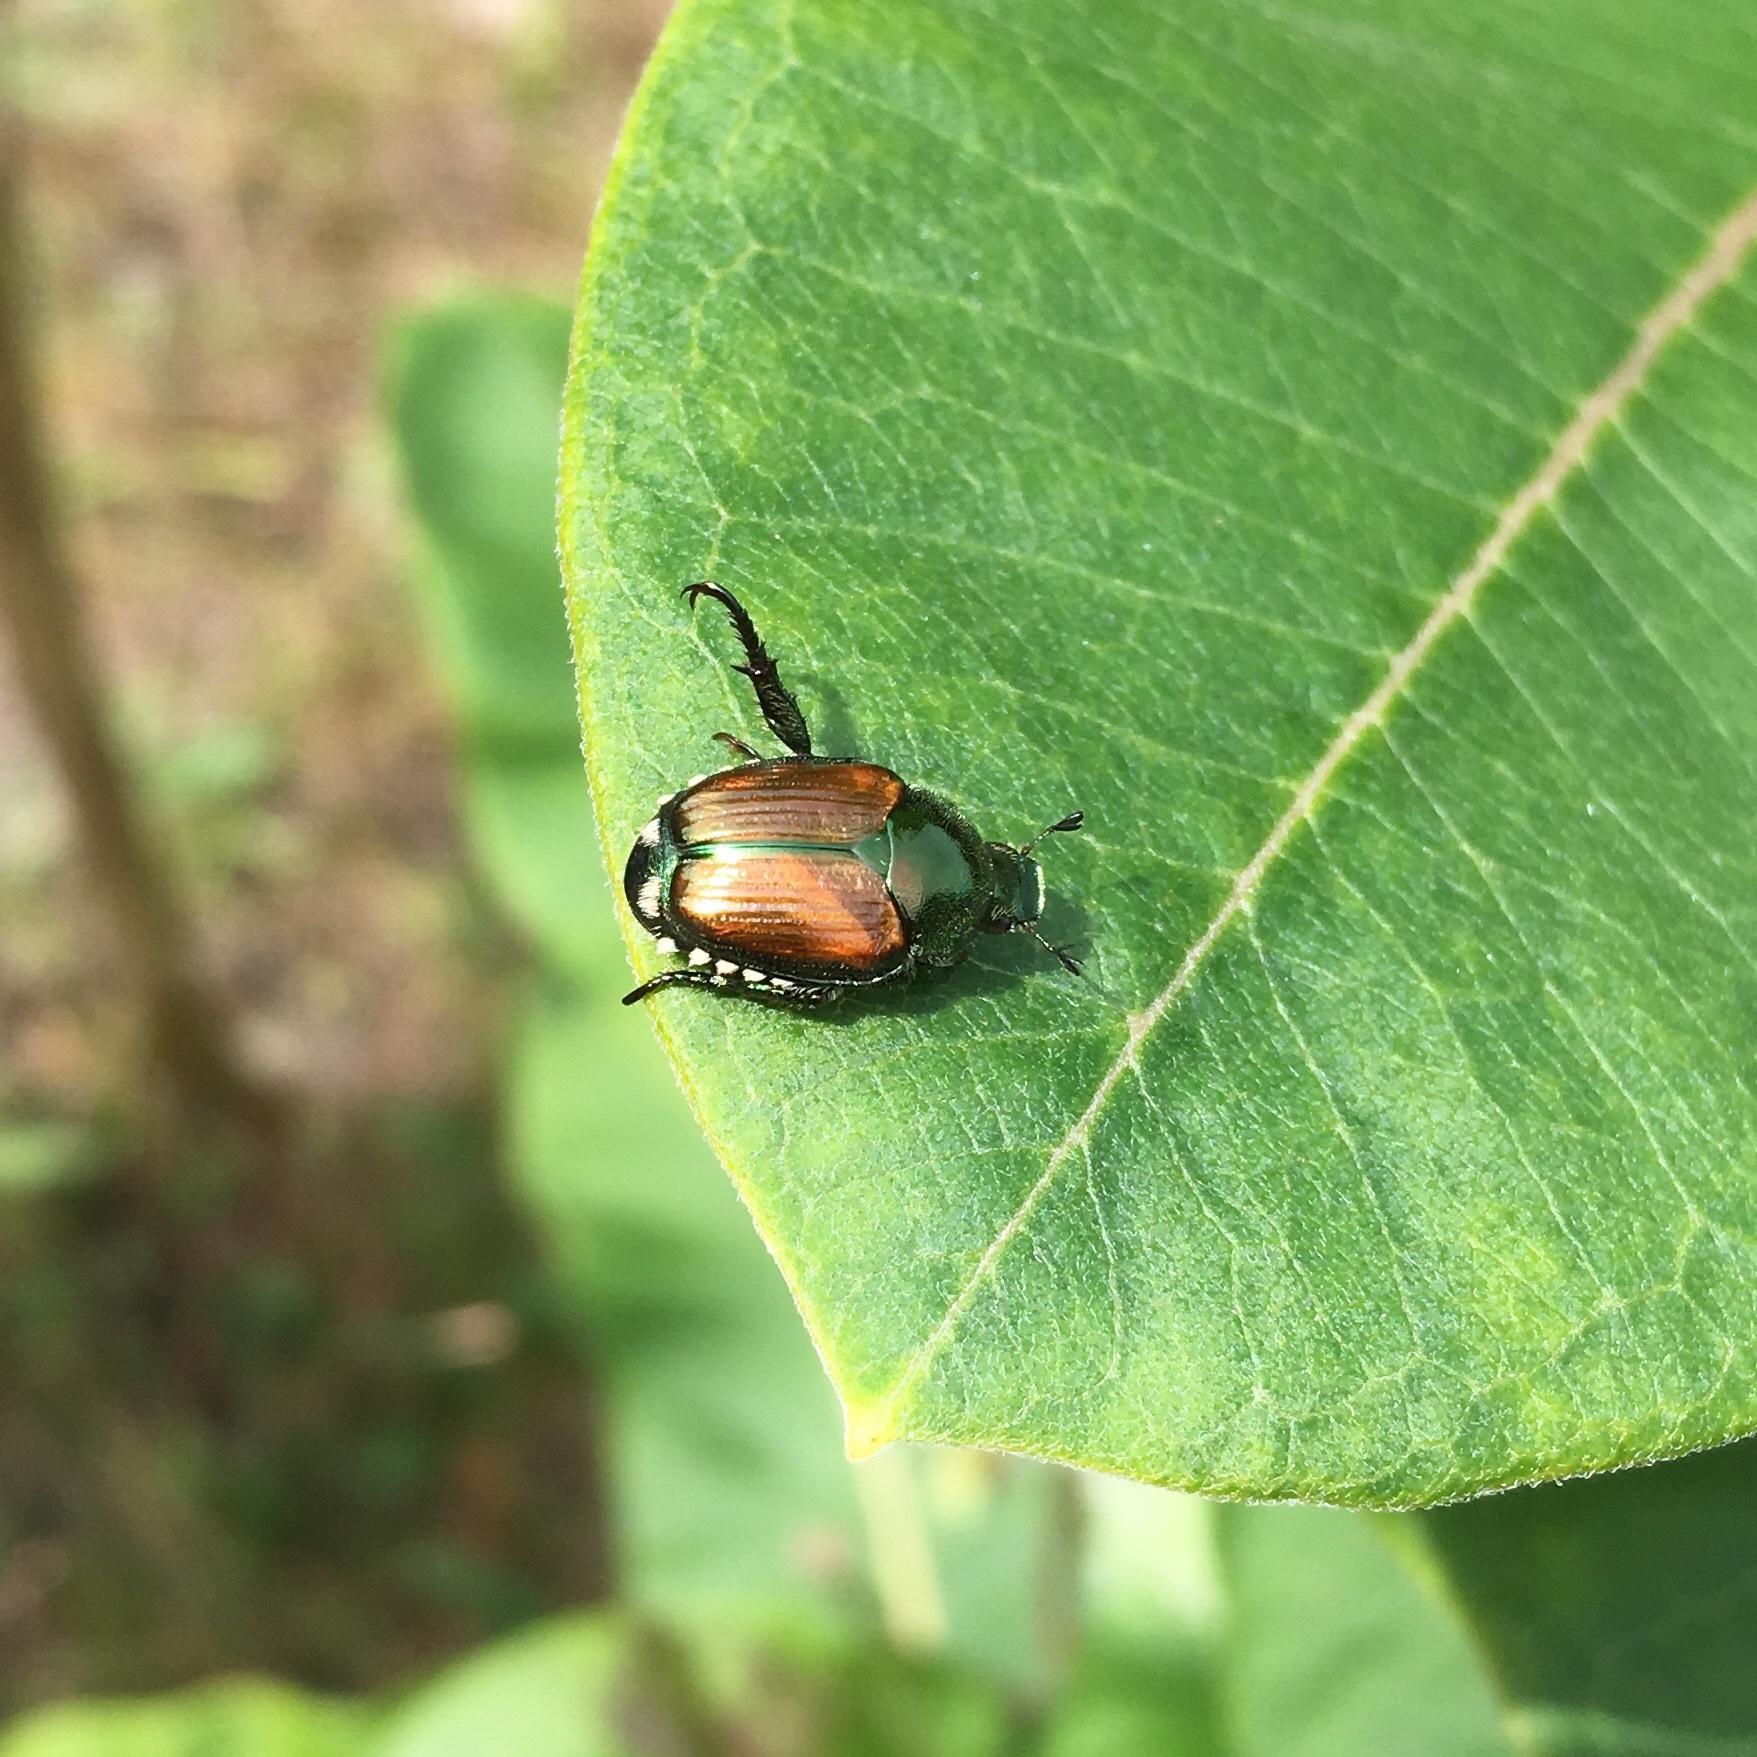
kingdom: Animalia
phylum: Arthropoda
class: Insecta
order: Coleoptera
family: Scarabaeidae
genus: Popillia
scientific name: Popillia japonica
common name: Japanese beetle
